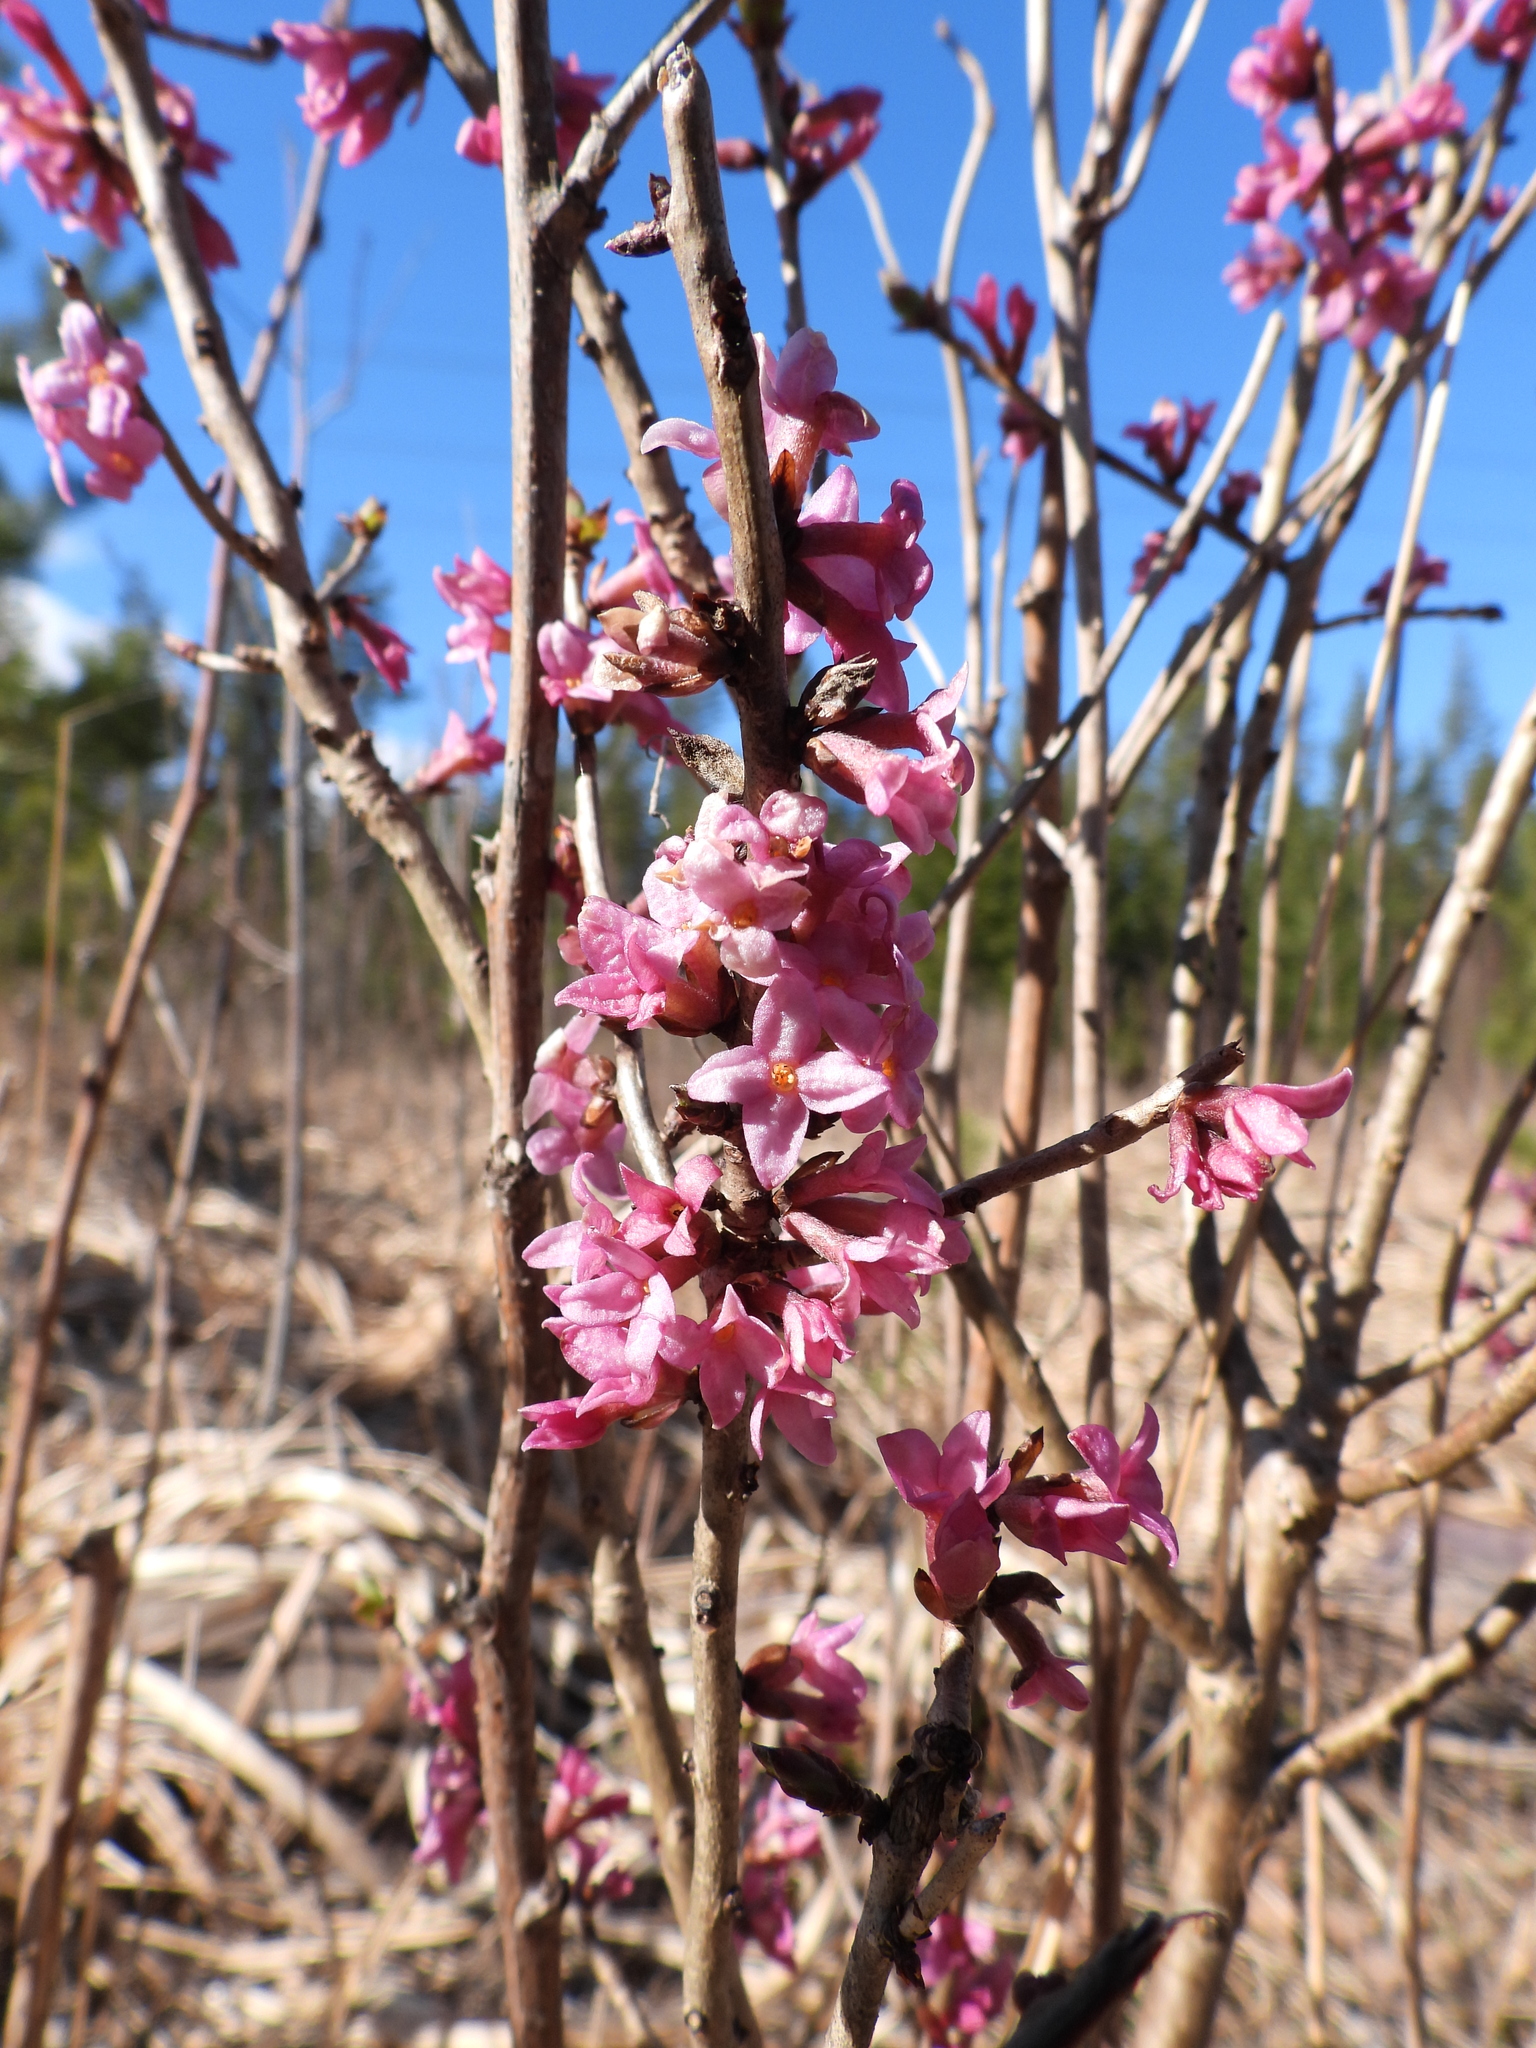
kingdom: Plantae
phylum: Tracheophyta
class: Magnoliopsida
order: Malvales
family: Thymelaeaceae
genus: Daphne
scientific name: Daphne mezereum
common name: Mezereon
